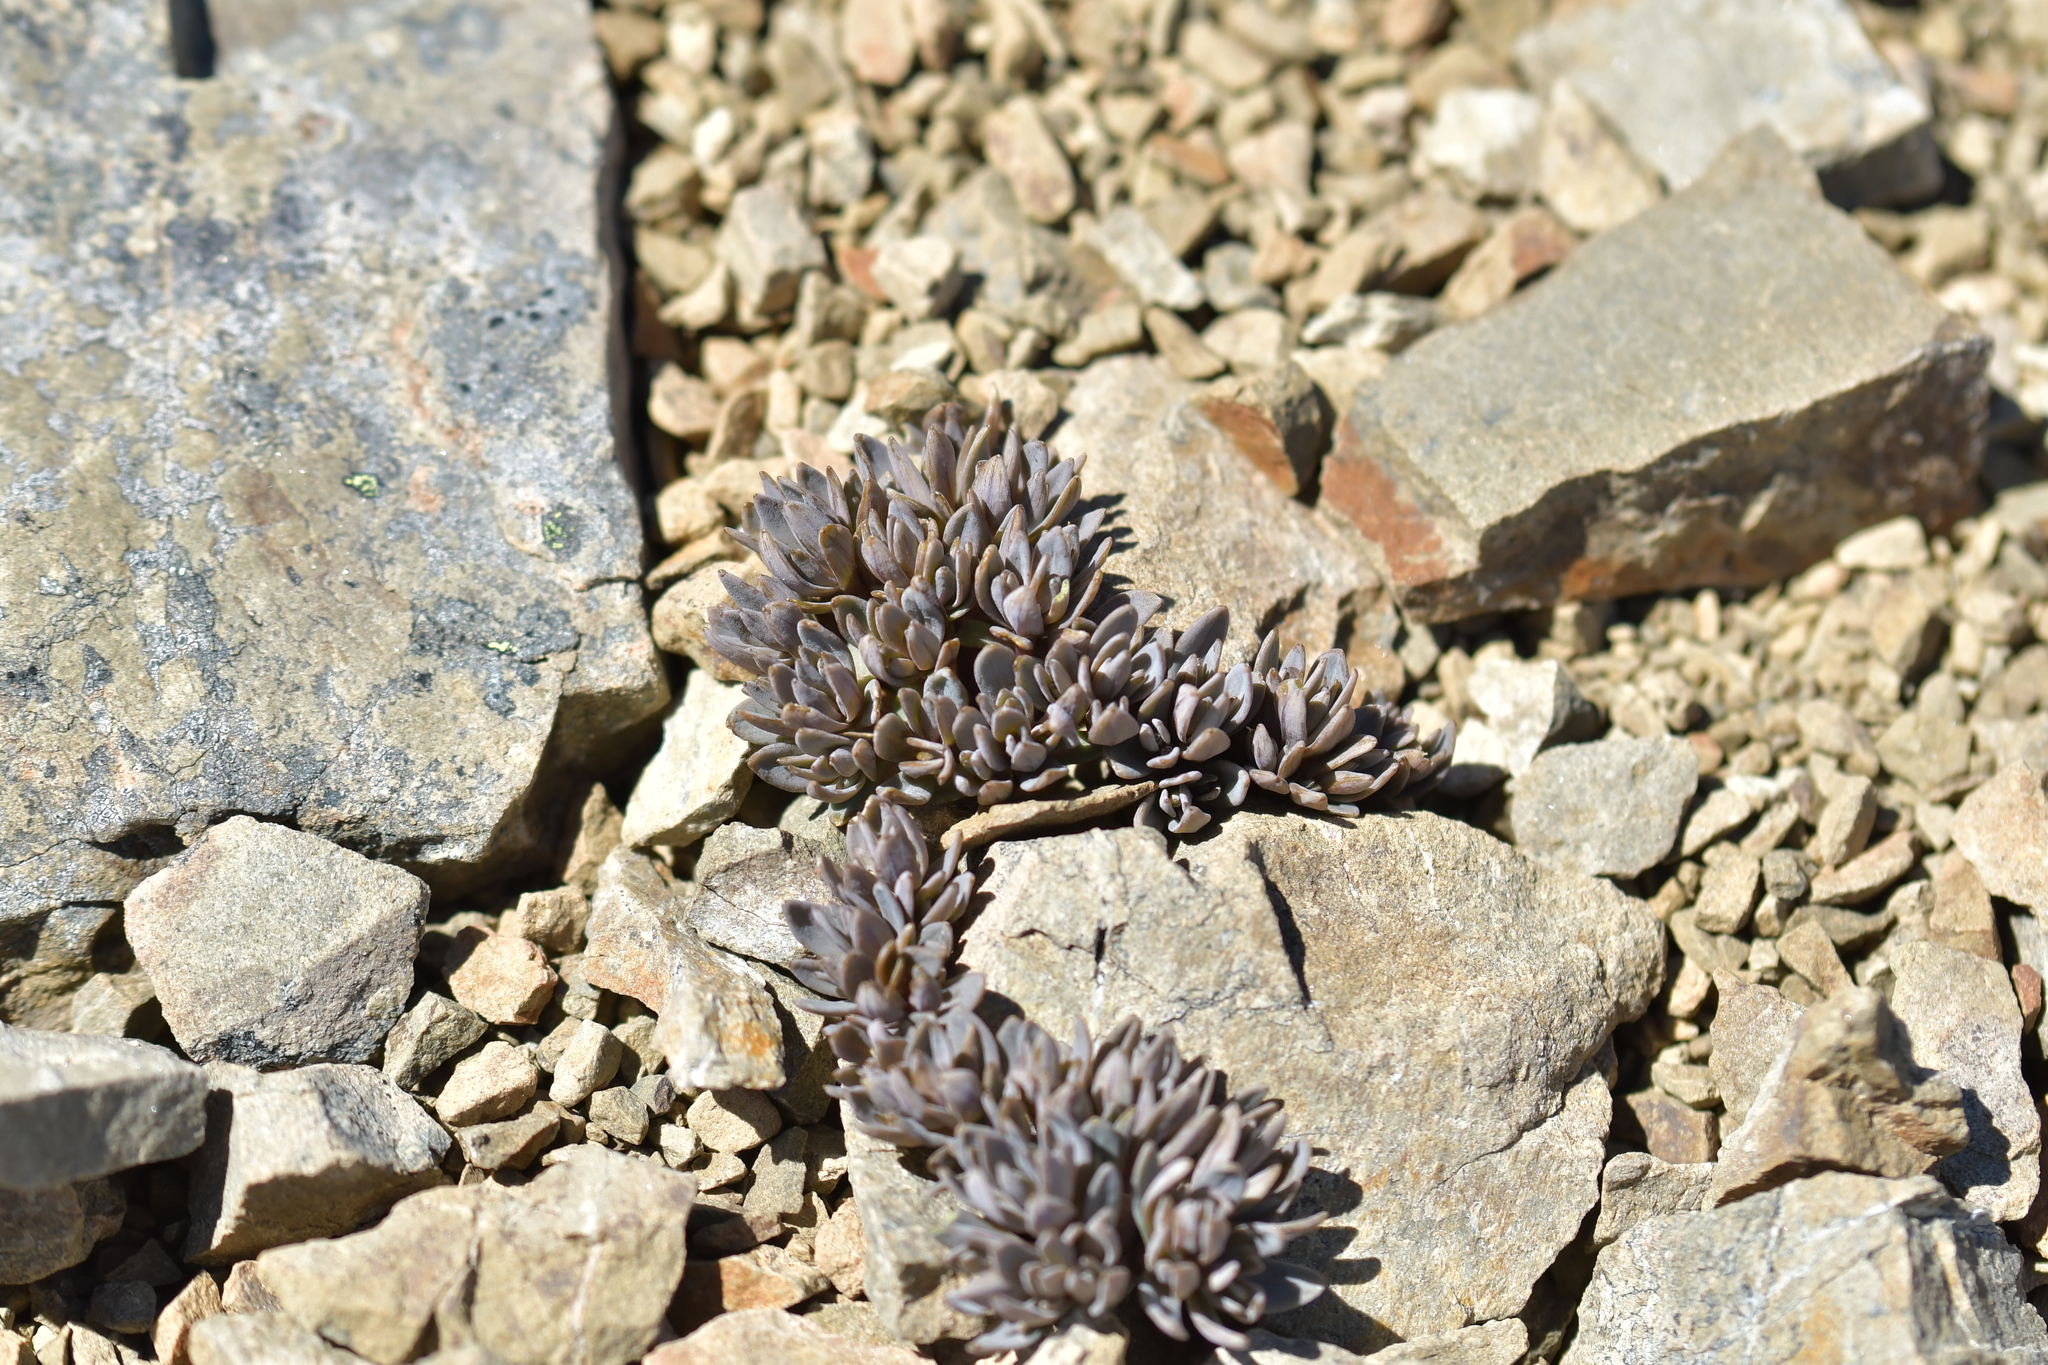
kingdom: Plantae
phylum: Tracheophyta
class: Magnoliopsida
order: Caryophyllales
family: Caryophyllaceae
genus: Stellaria
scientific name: Stellaria roughii
